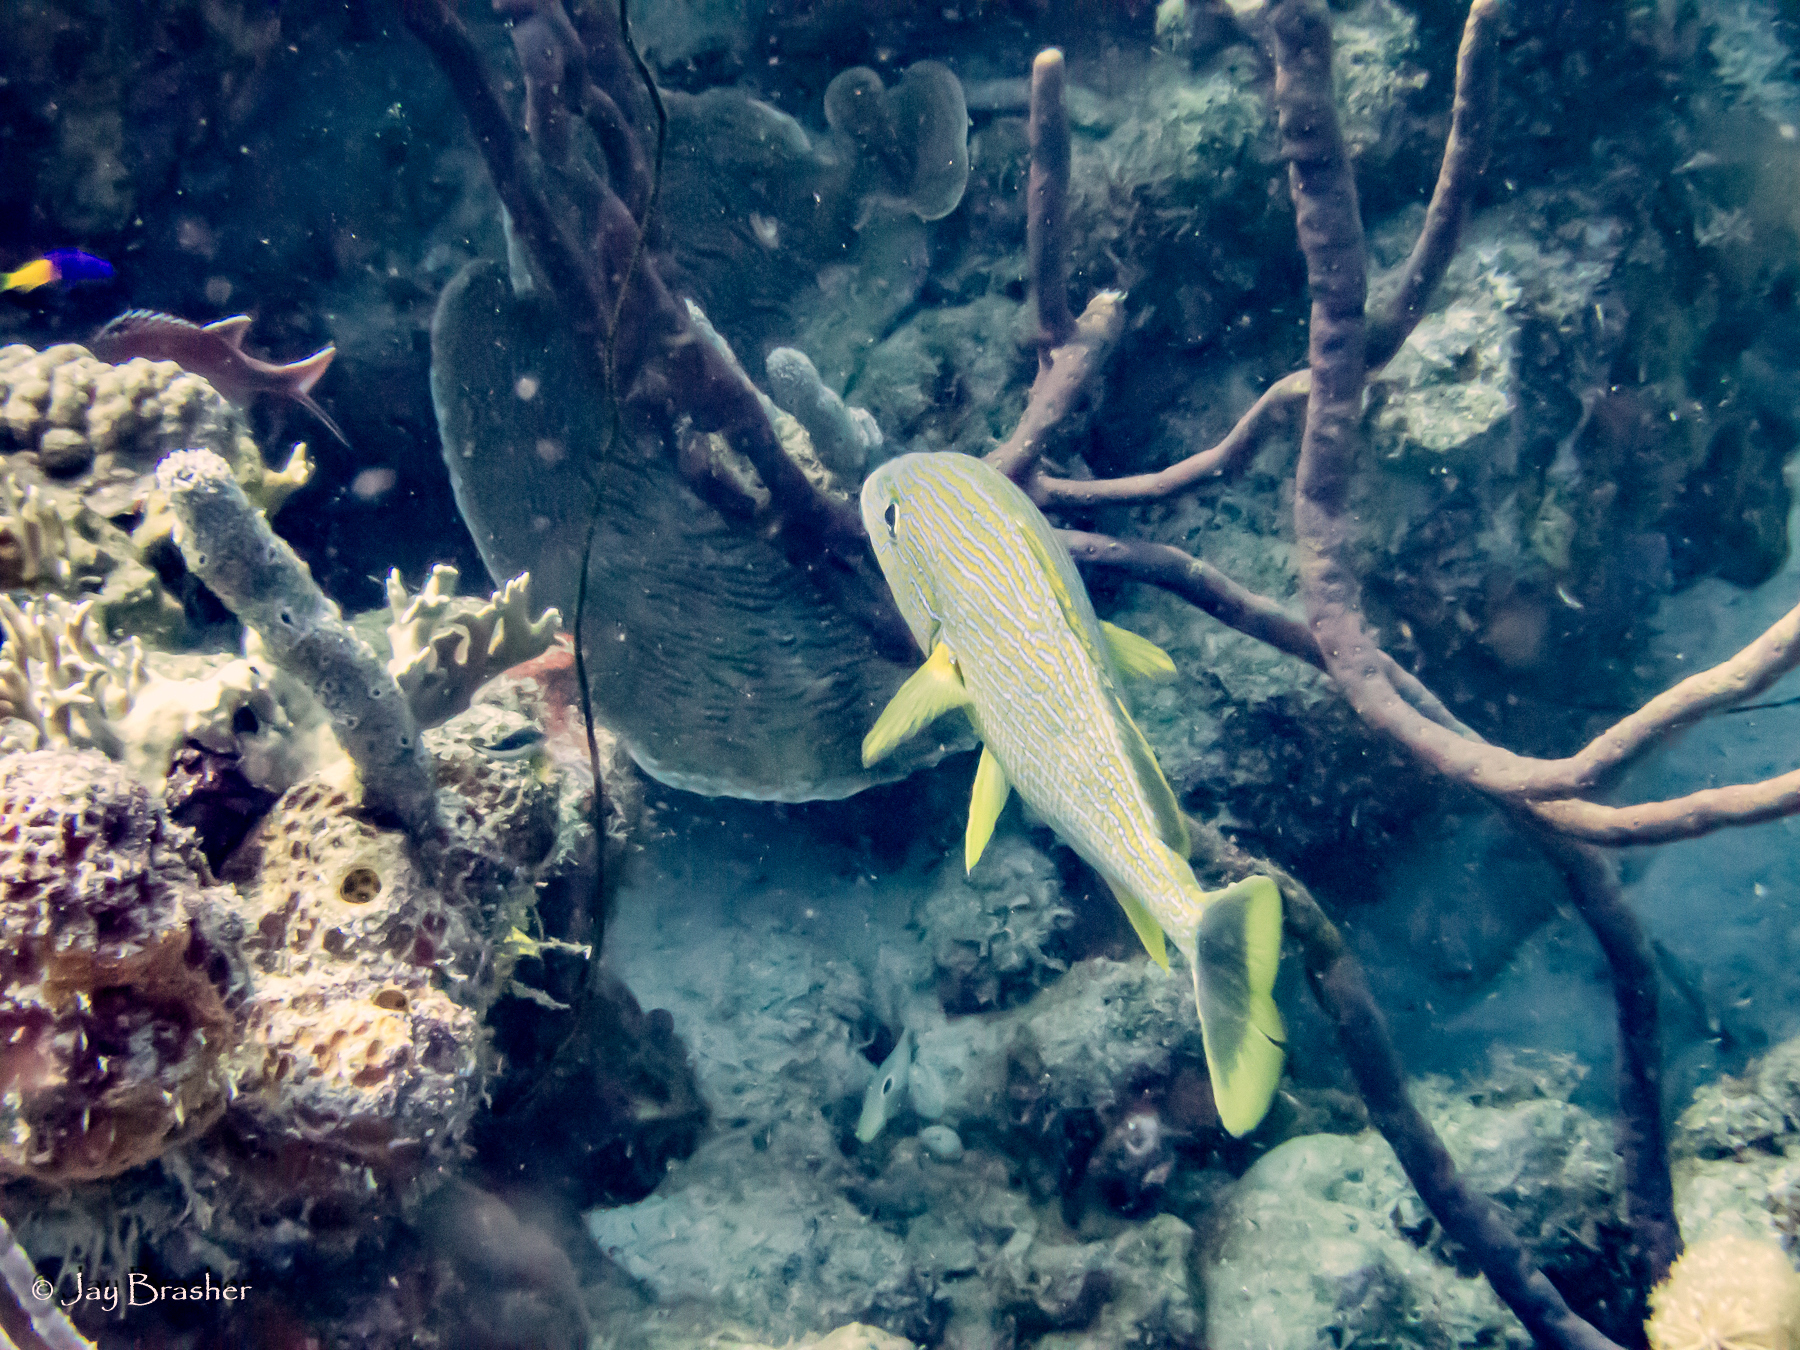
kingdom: Animalia
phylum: Chordata
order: Perciformes
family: Grammatidae
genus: Gramma
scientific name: Gramma loreto
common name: Fairy basslet
